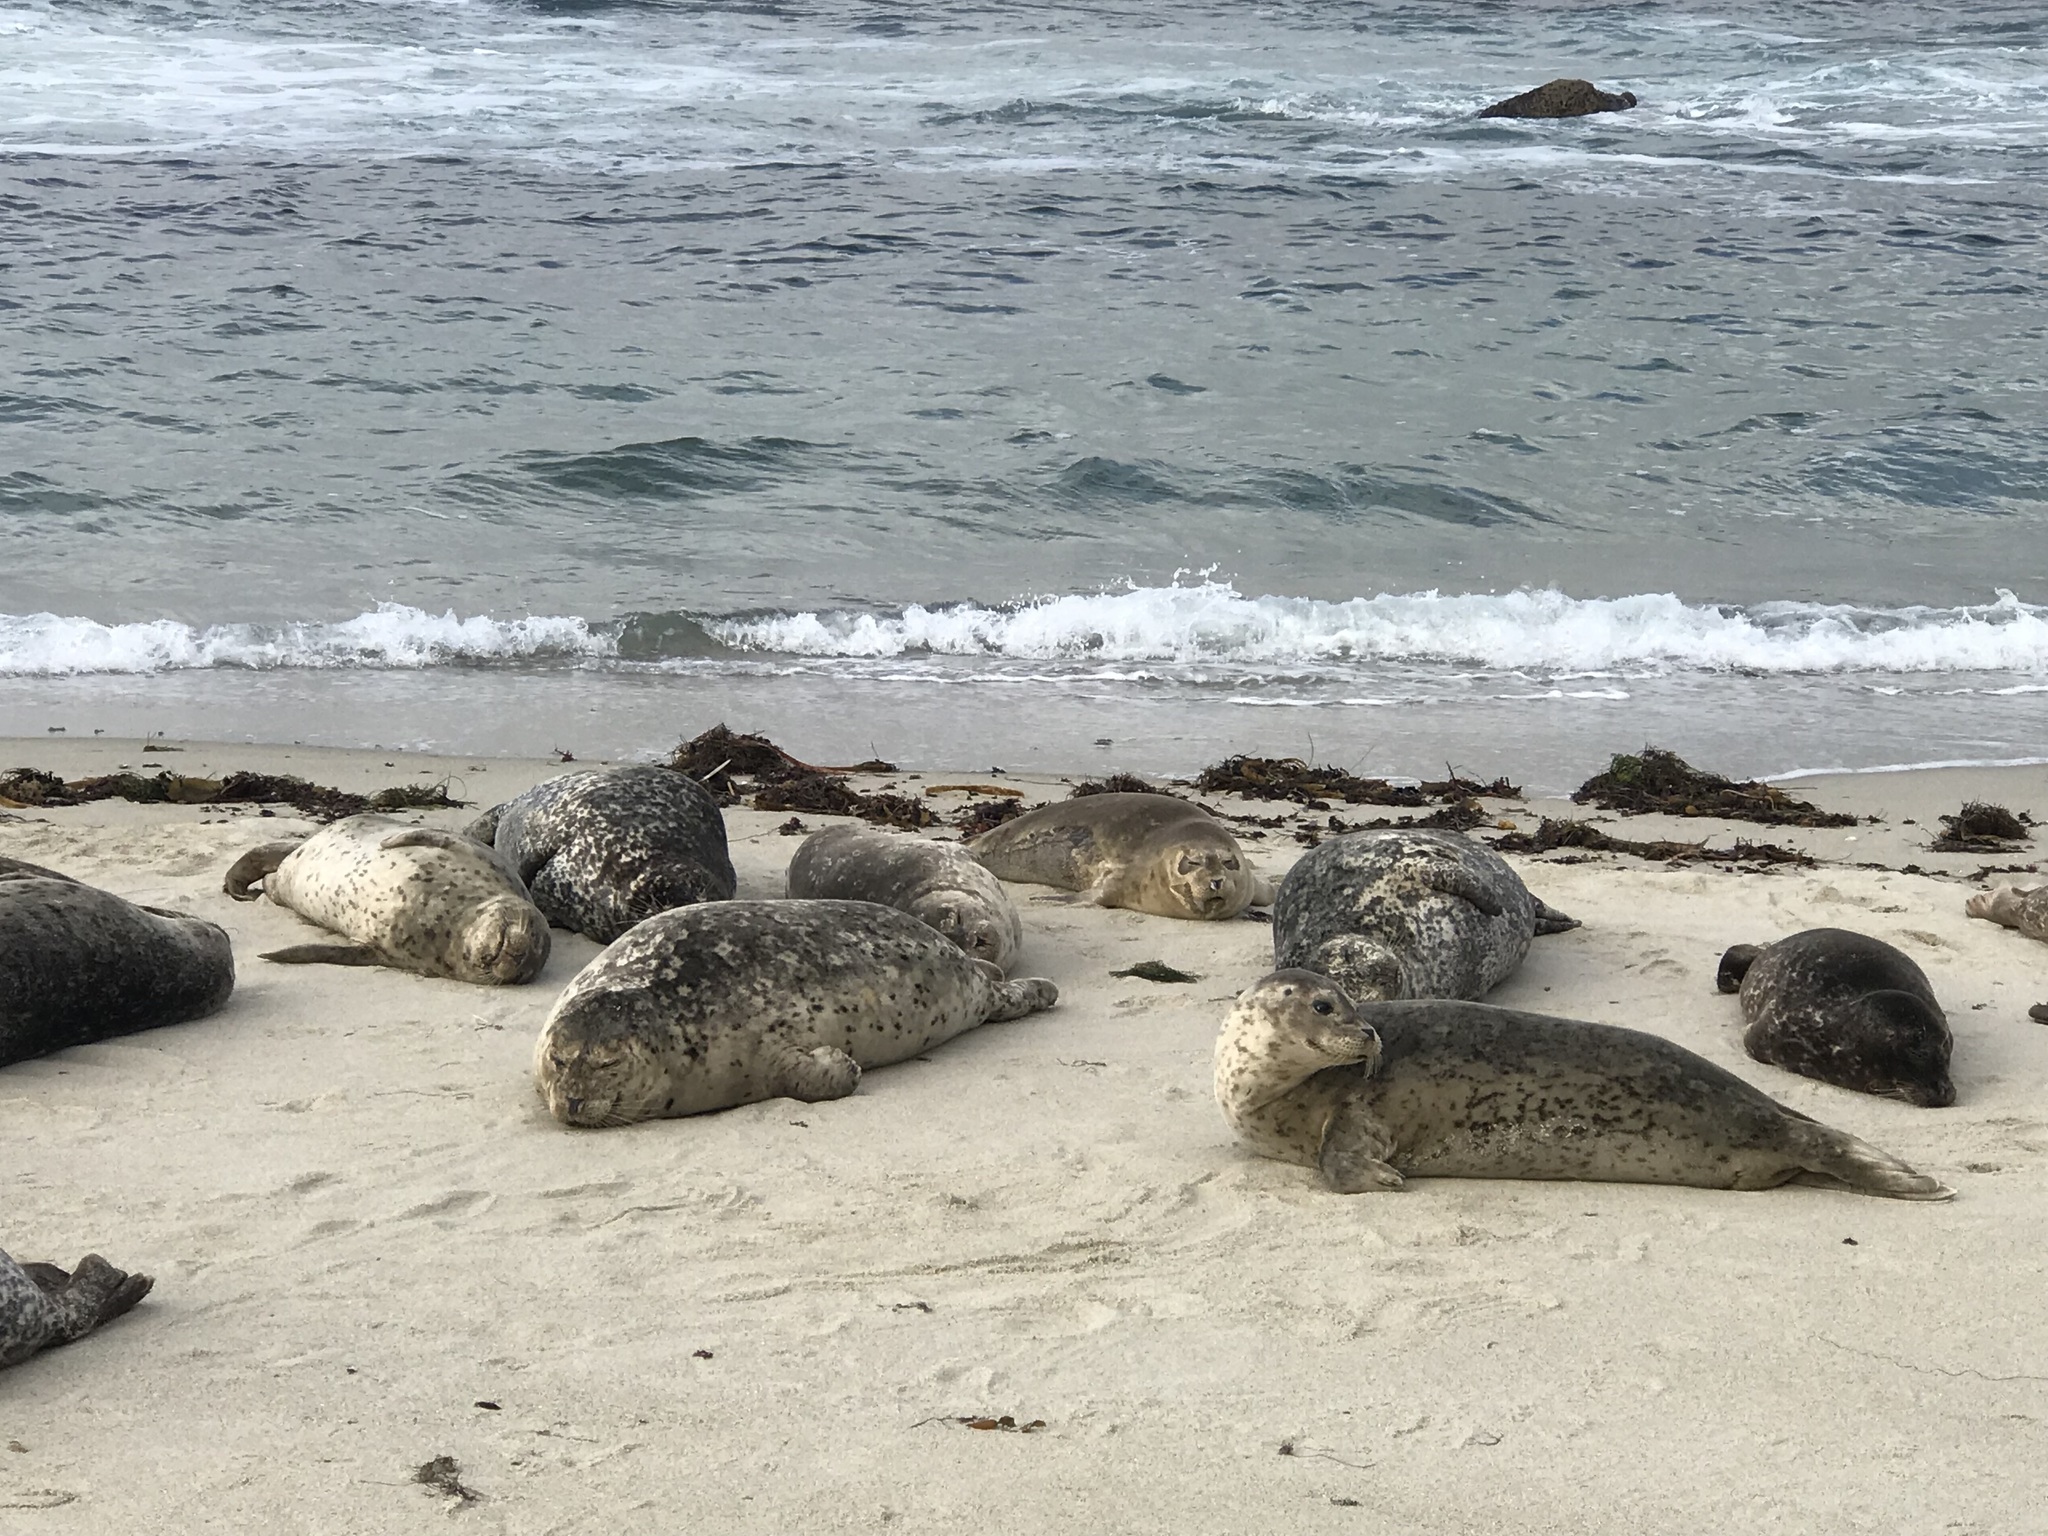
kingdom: Animalia
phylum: Chordata
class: Mammalia
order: Carnivora
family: Phocidae
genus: Phoca
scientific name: Phoca vitulina
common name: Harbor seal
